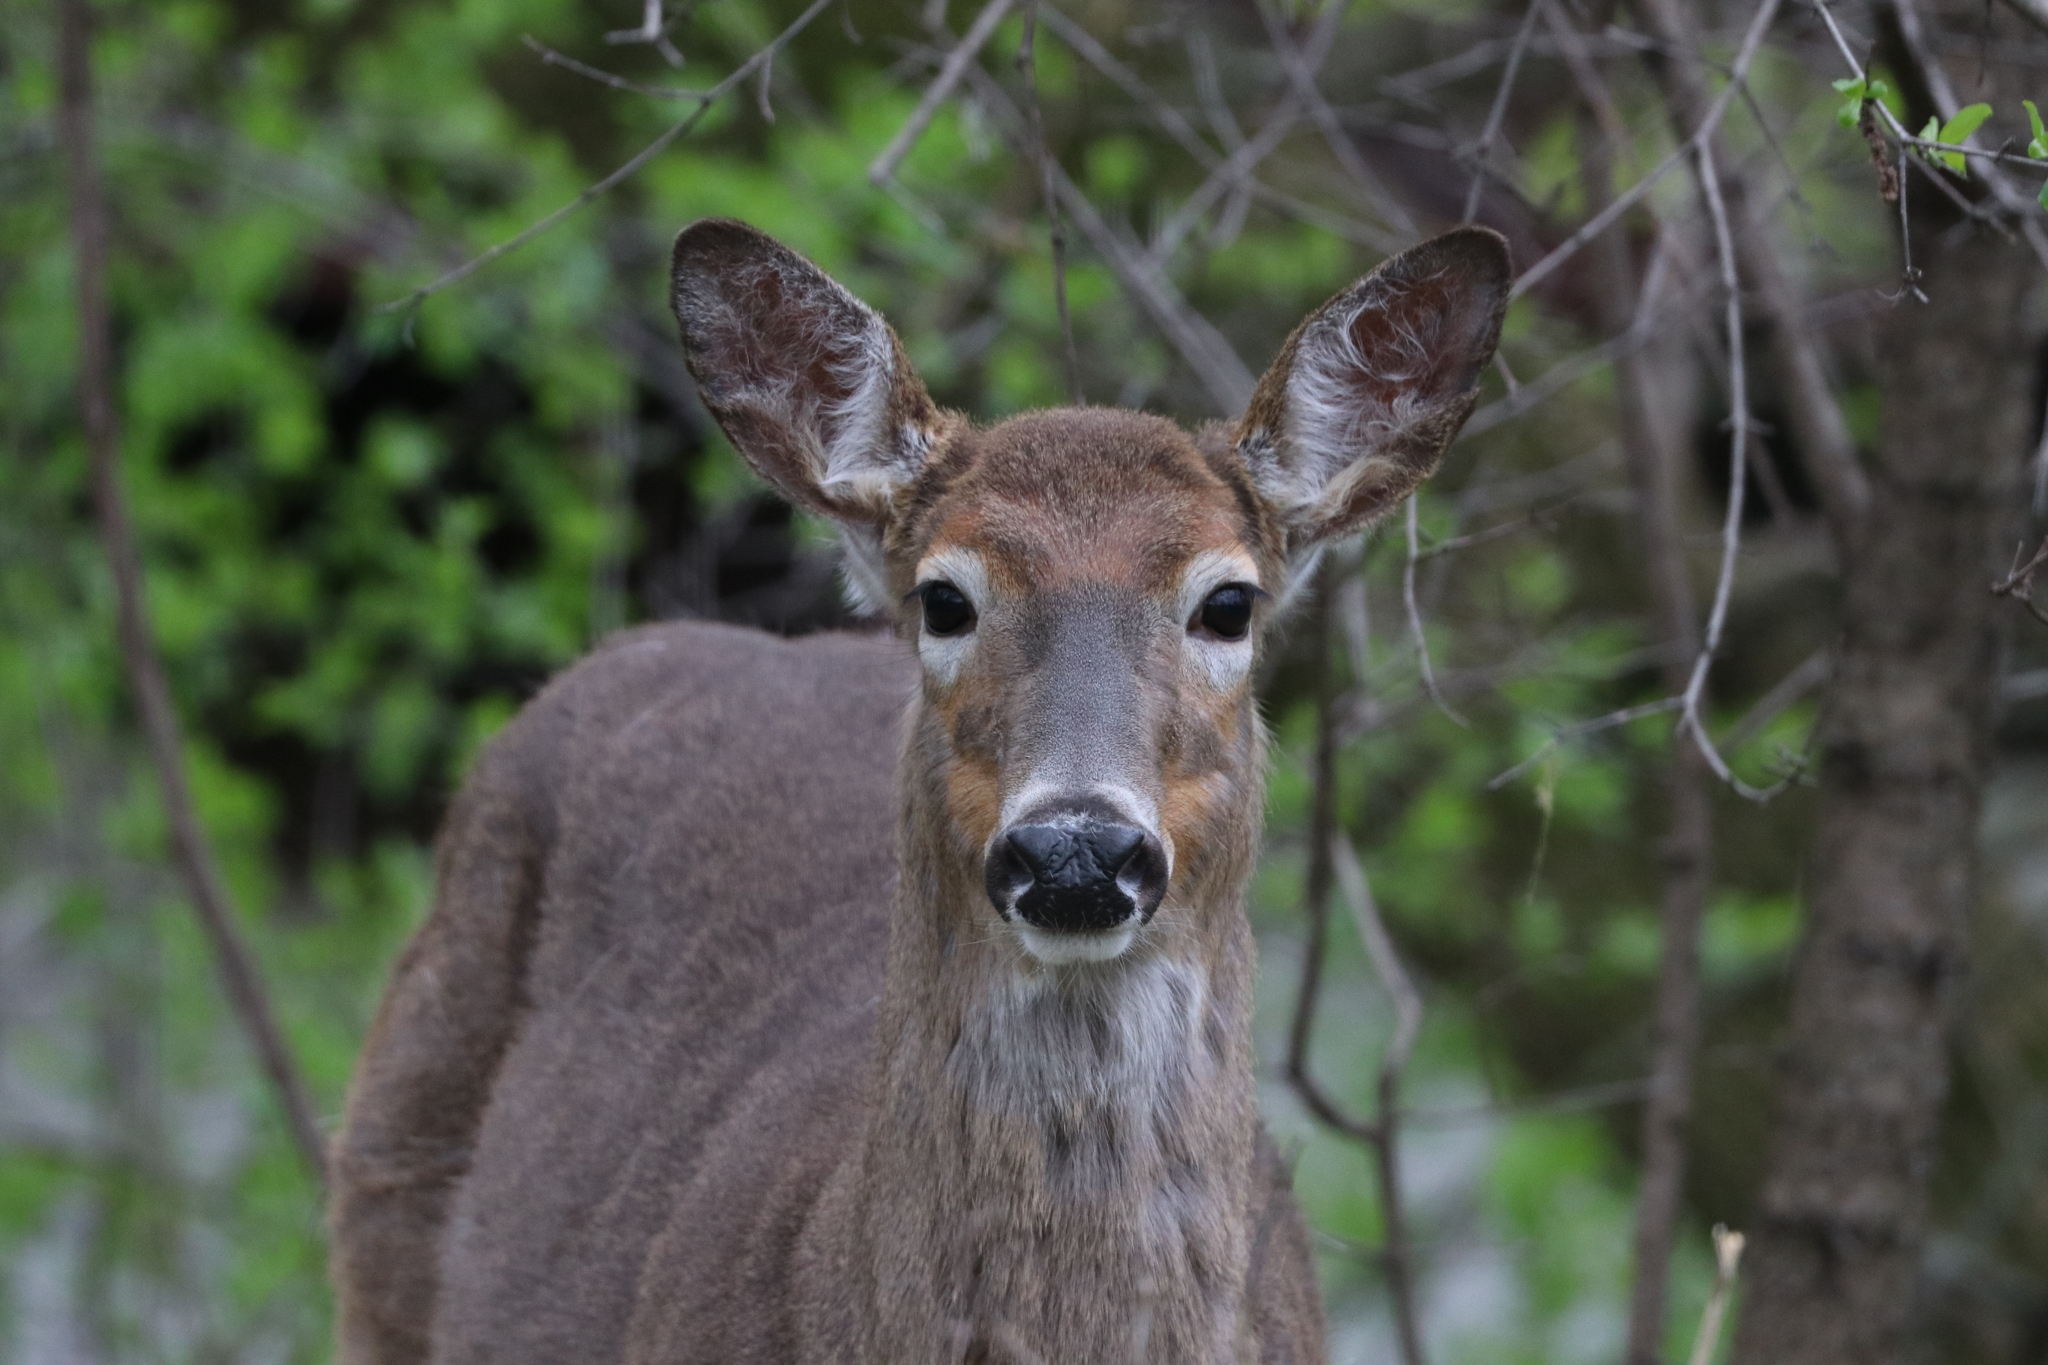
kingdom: Animalia
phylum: Chordata
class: Mammalia
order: Artiodactyla
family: Cervidae
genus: Odocoileus
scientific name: Odocoileus virginianus
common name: White-tailed deer
